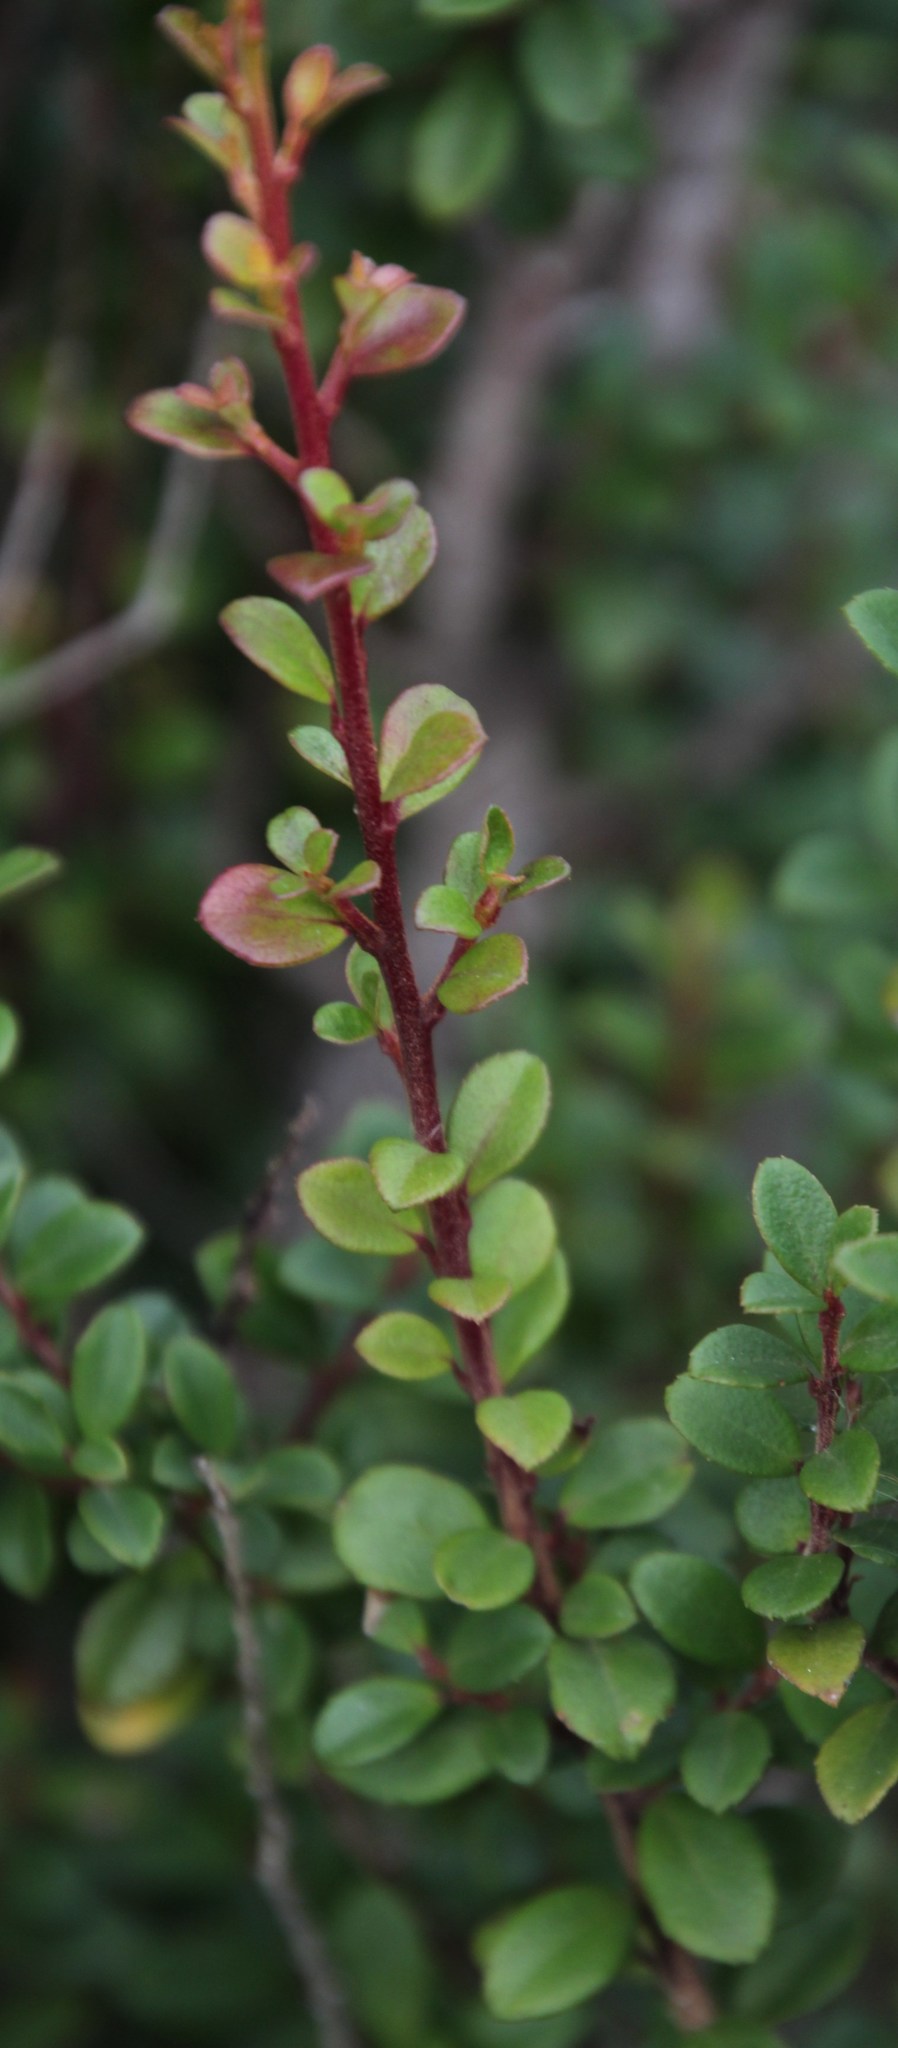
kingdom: Plantae
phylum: Tracheophyta
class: Magnoliopsida
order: Ericales
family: Primulaceae
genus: Myrsine
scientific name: Myrsine africana
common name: African-boxwood
